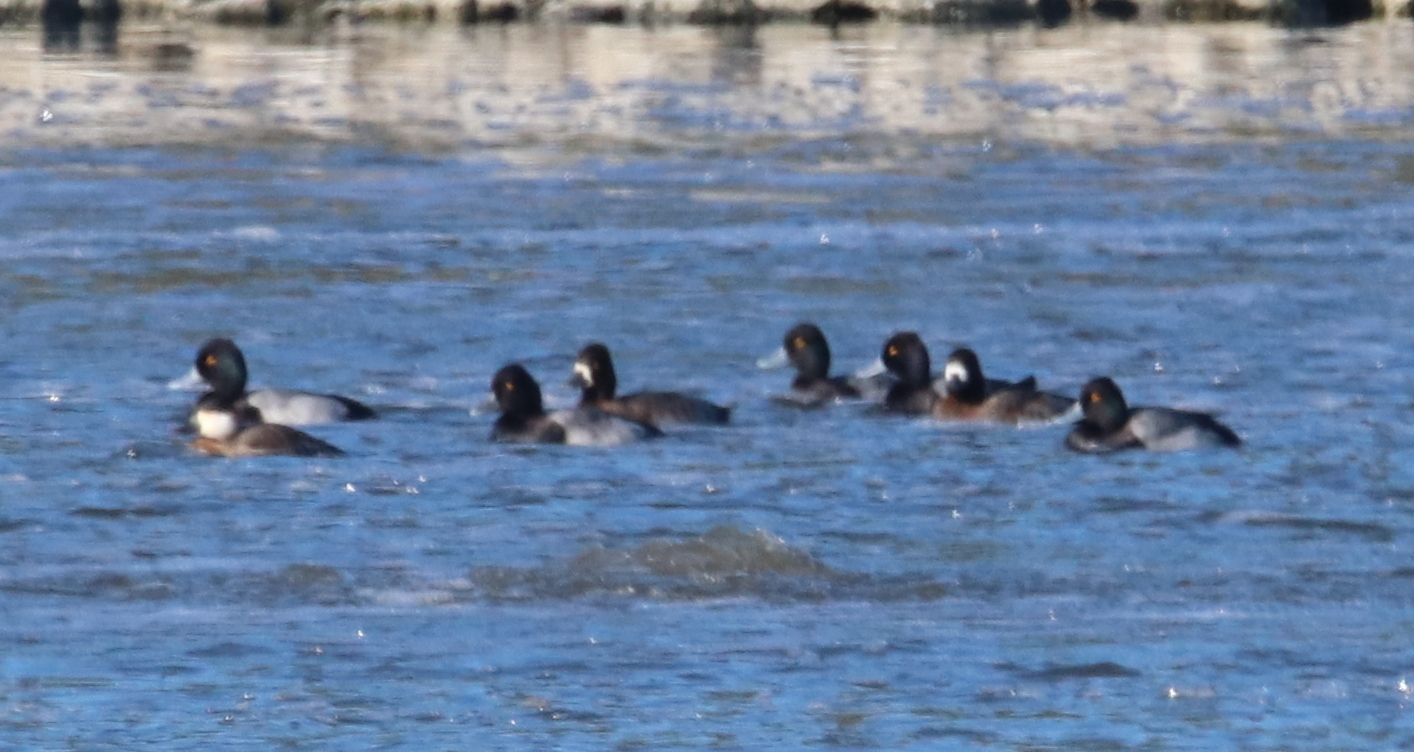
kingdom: Animalia
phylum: Chordata
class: Aves
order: Anseriformes
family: Anatidae
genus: Aythya
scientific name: Aythya affinis
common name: Lesser scaup
